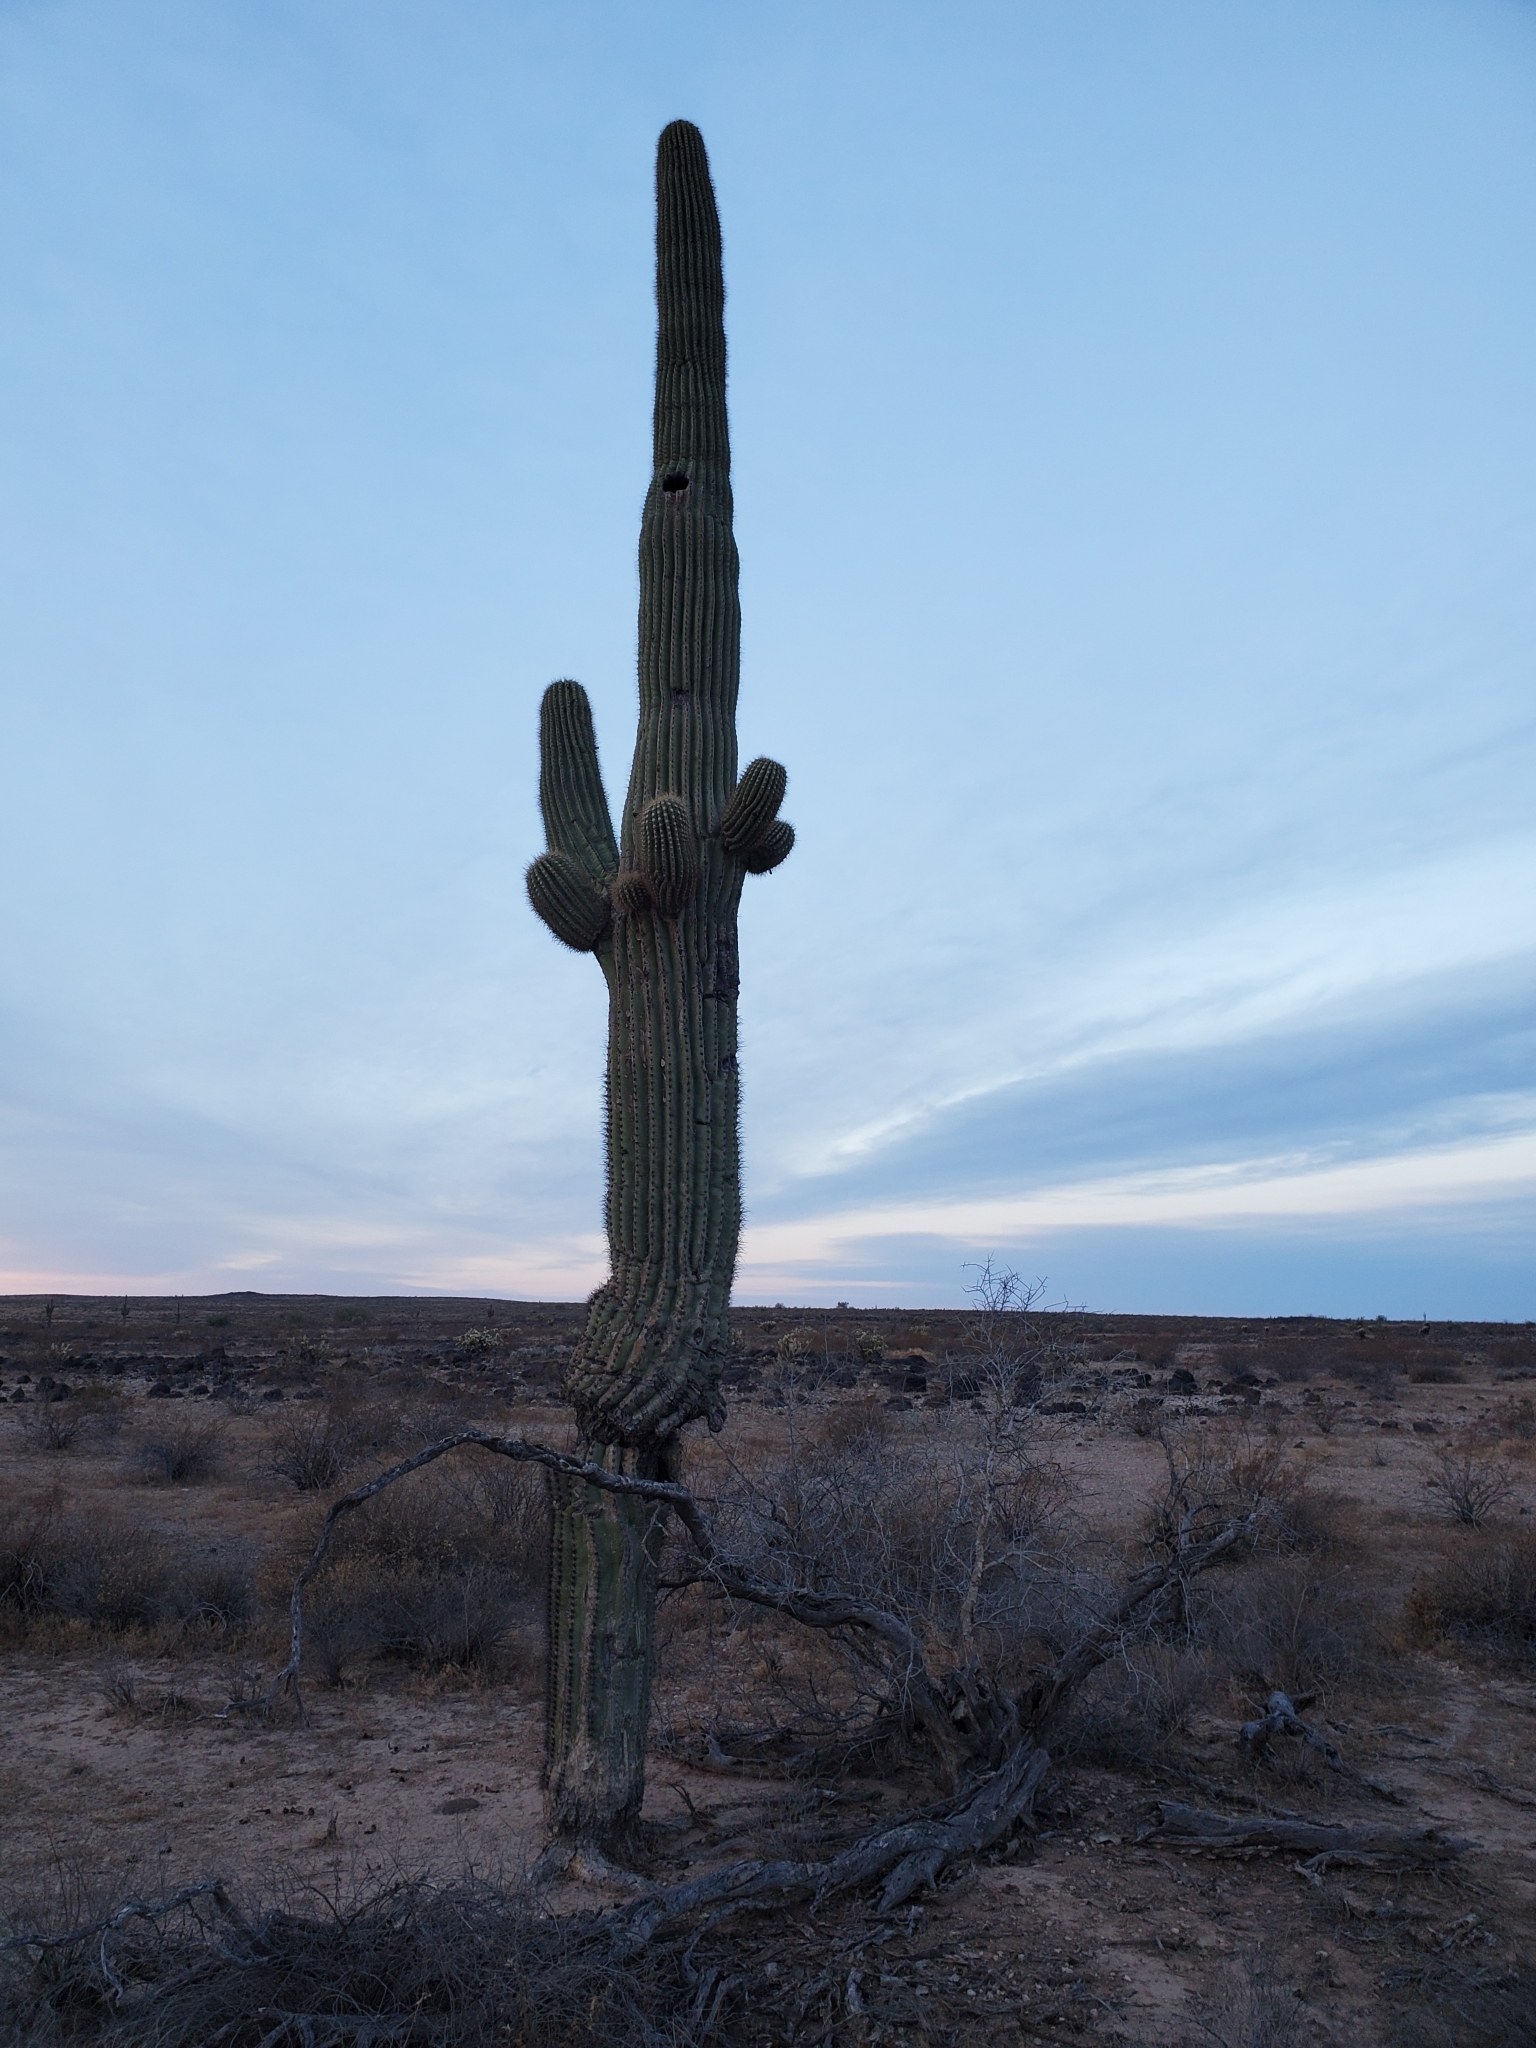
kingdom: Plantae
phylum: Tracheophyta
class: Magnoliopsida
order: Caryophyllales
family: Cactaceae
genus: Carnegiea
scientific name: Carnegiea gigantea
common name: Saguaro
